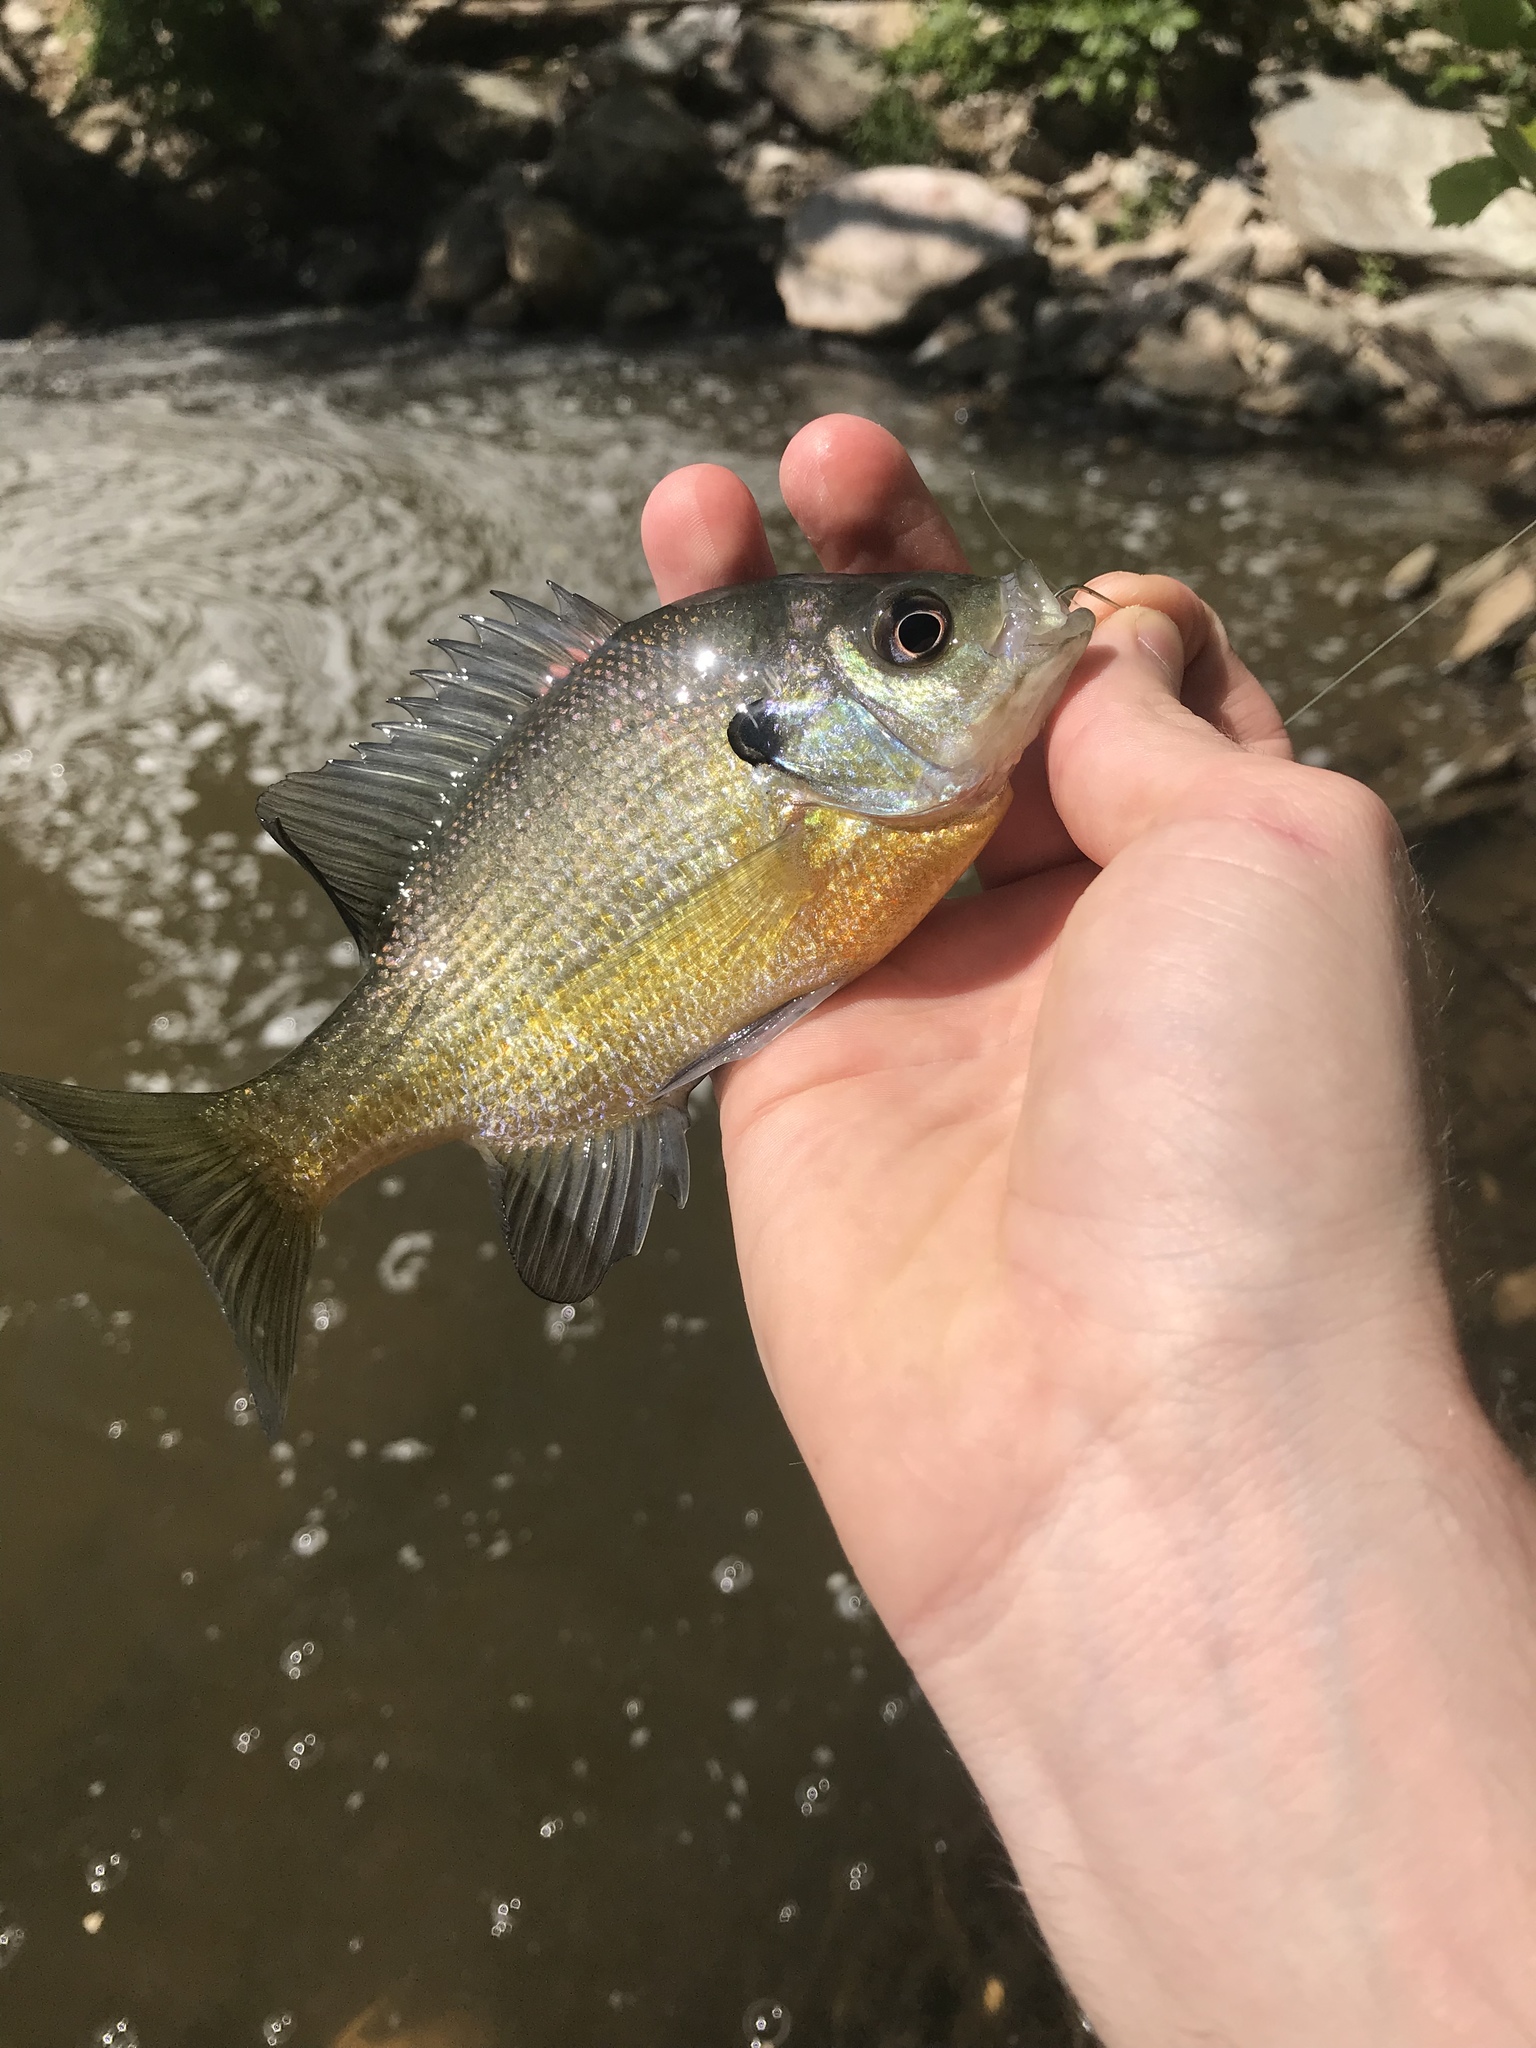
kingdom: Animalia
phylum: Chordata
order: Perciformes
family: Centrarchidae
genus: Lepomis
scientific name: Lepomis macrochirus
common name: Bluegill
